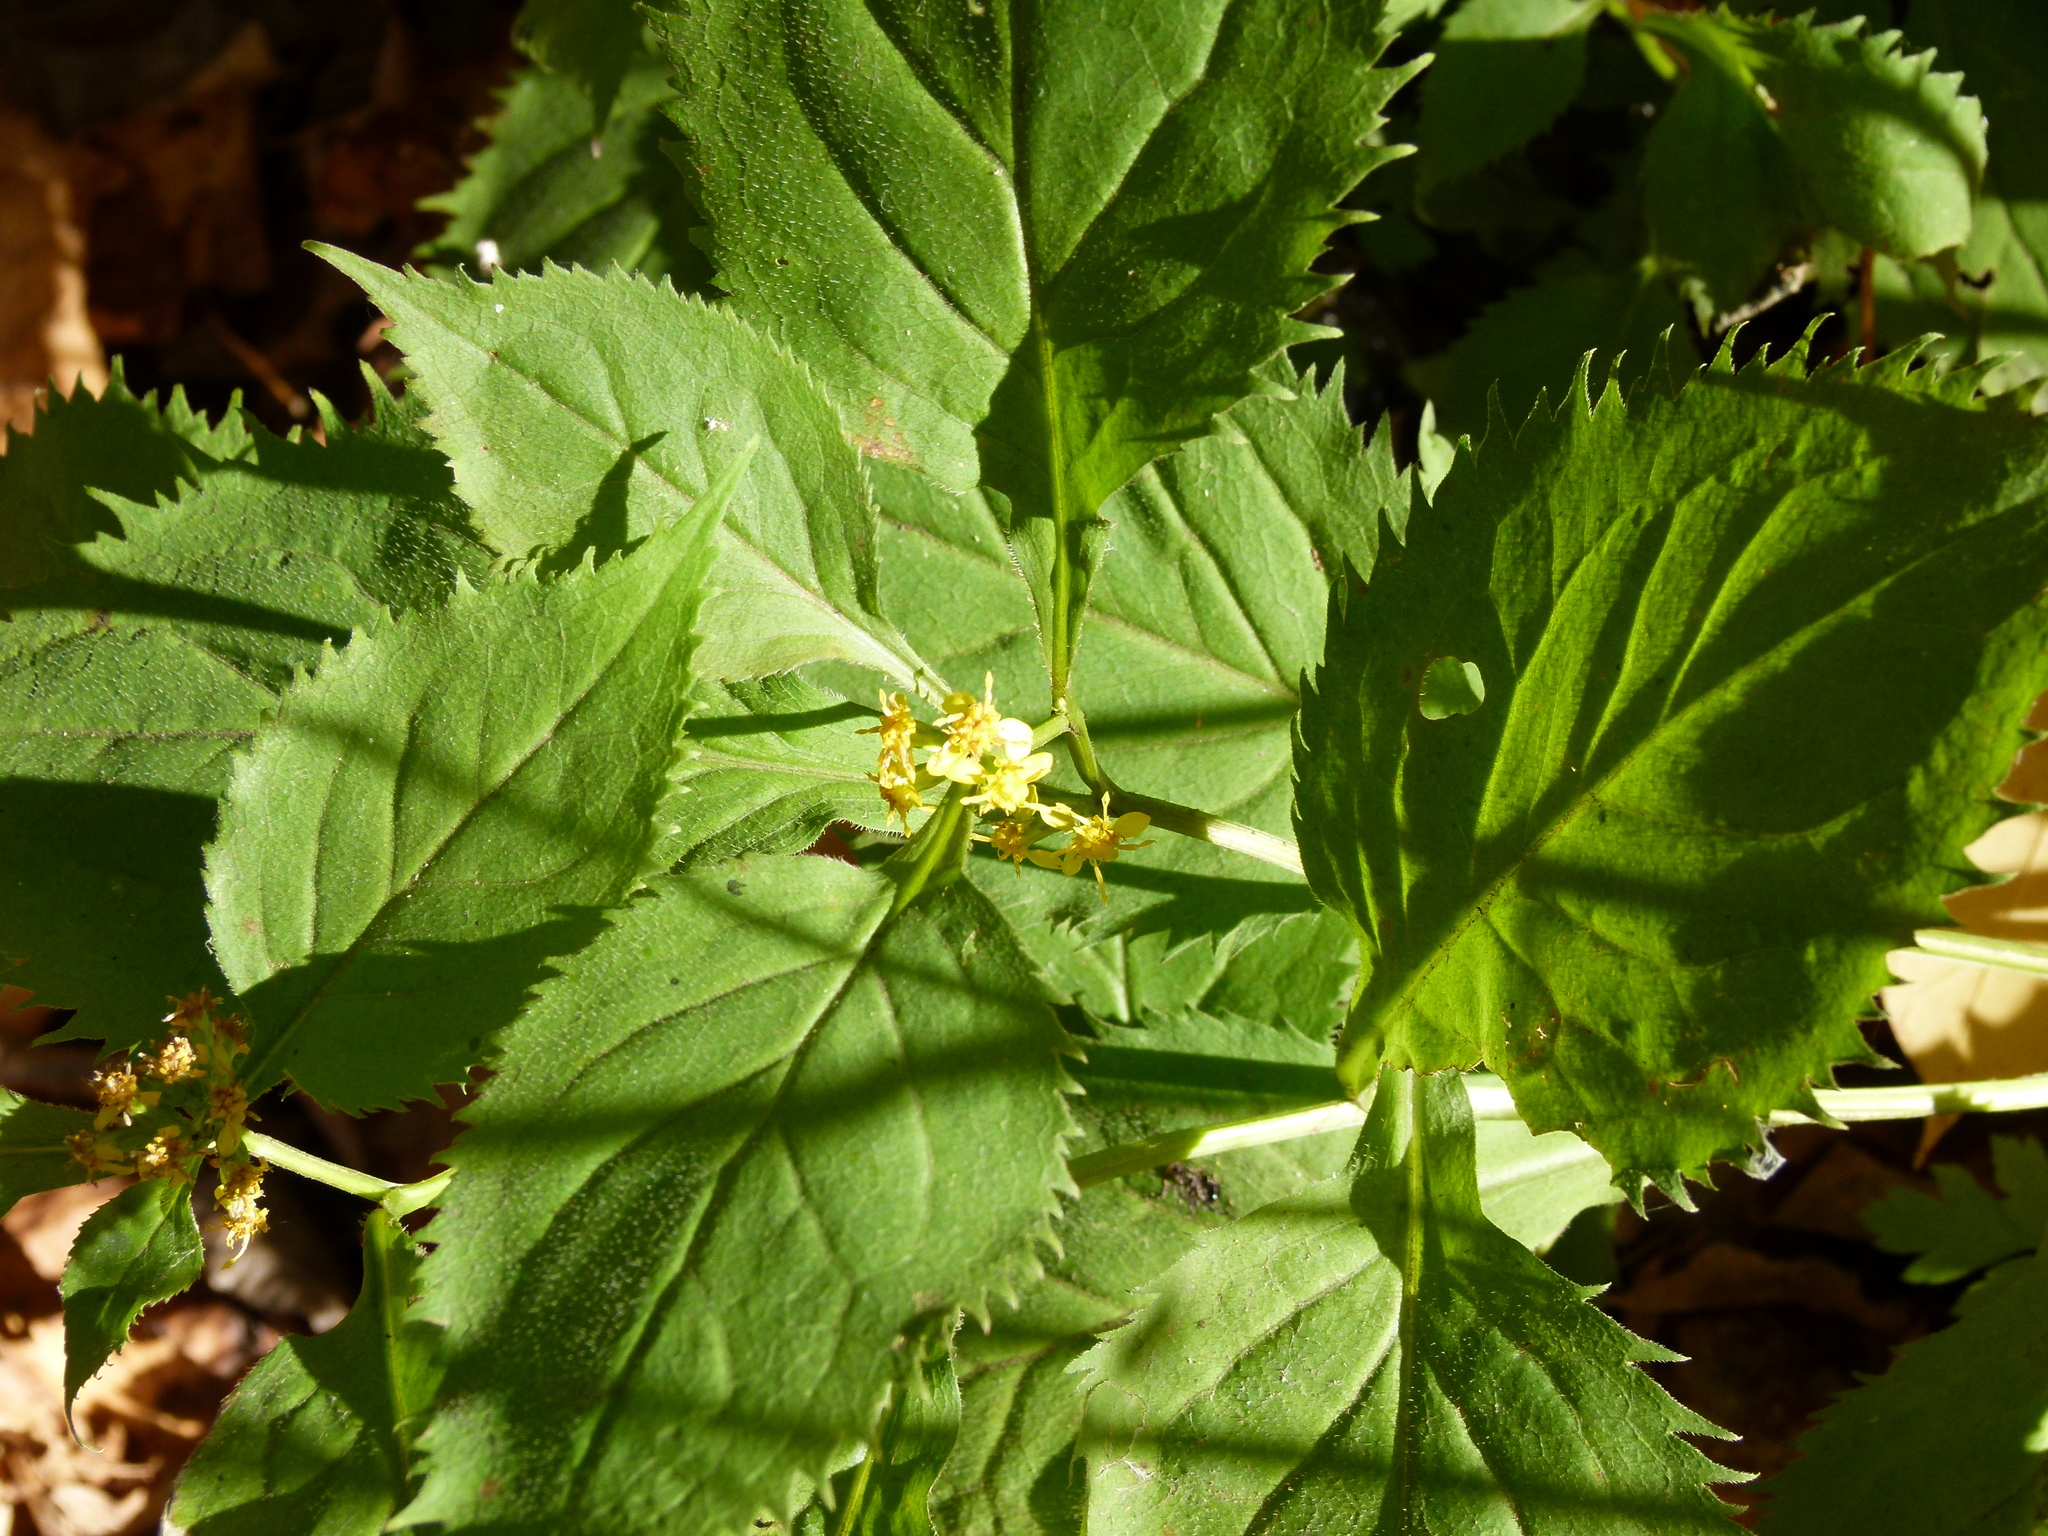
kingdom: Plantae
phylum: Tracheophyta
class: Magnoliopsida
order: Asterales
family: Asteraceae
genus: Solidago
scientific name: Solidago flexicaulis
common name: Zig-zag goldenrod
